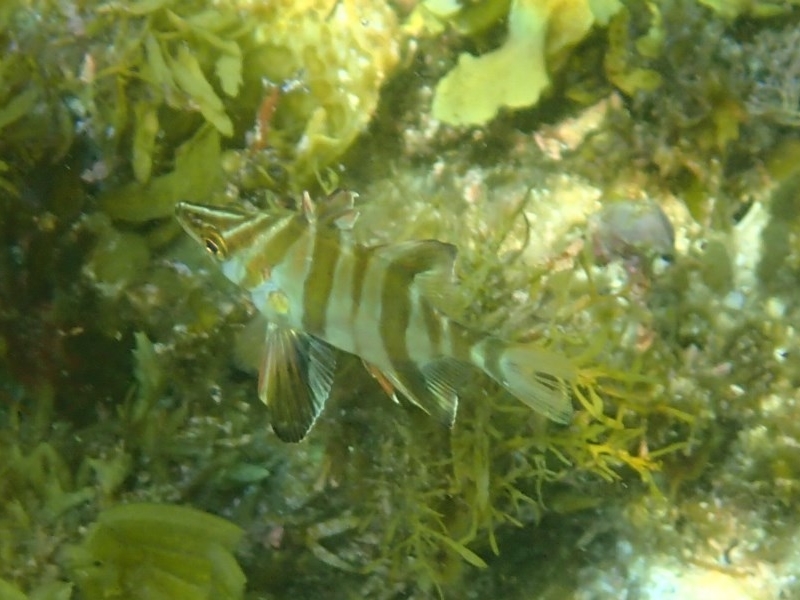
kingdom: Animalia
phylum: Chordata
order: Perciformes
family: Enoplosidae
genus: Enoplosus
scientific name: Enoplosus armatus
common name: Old wife
